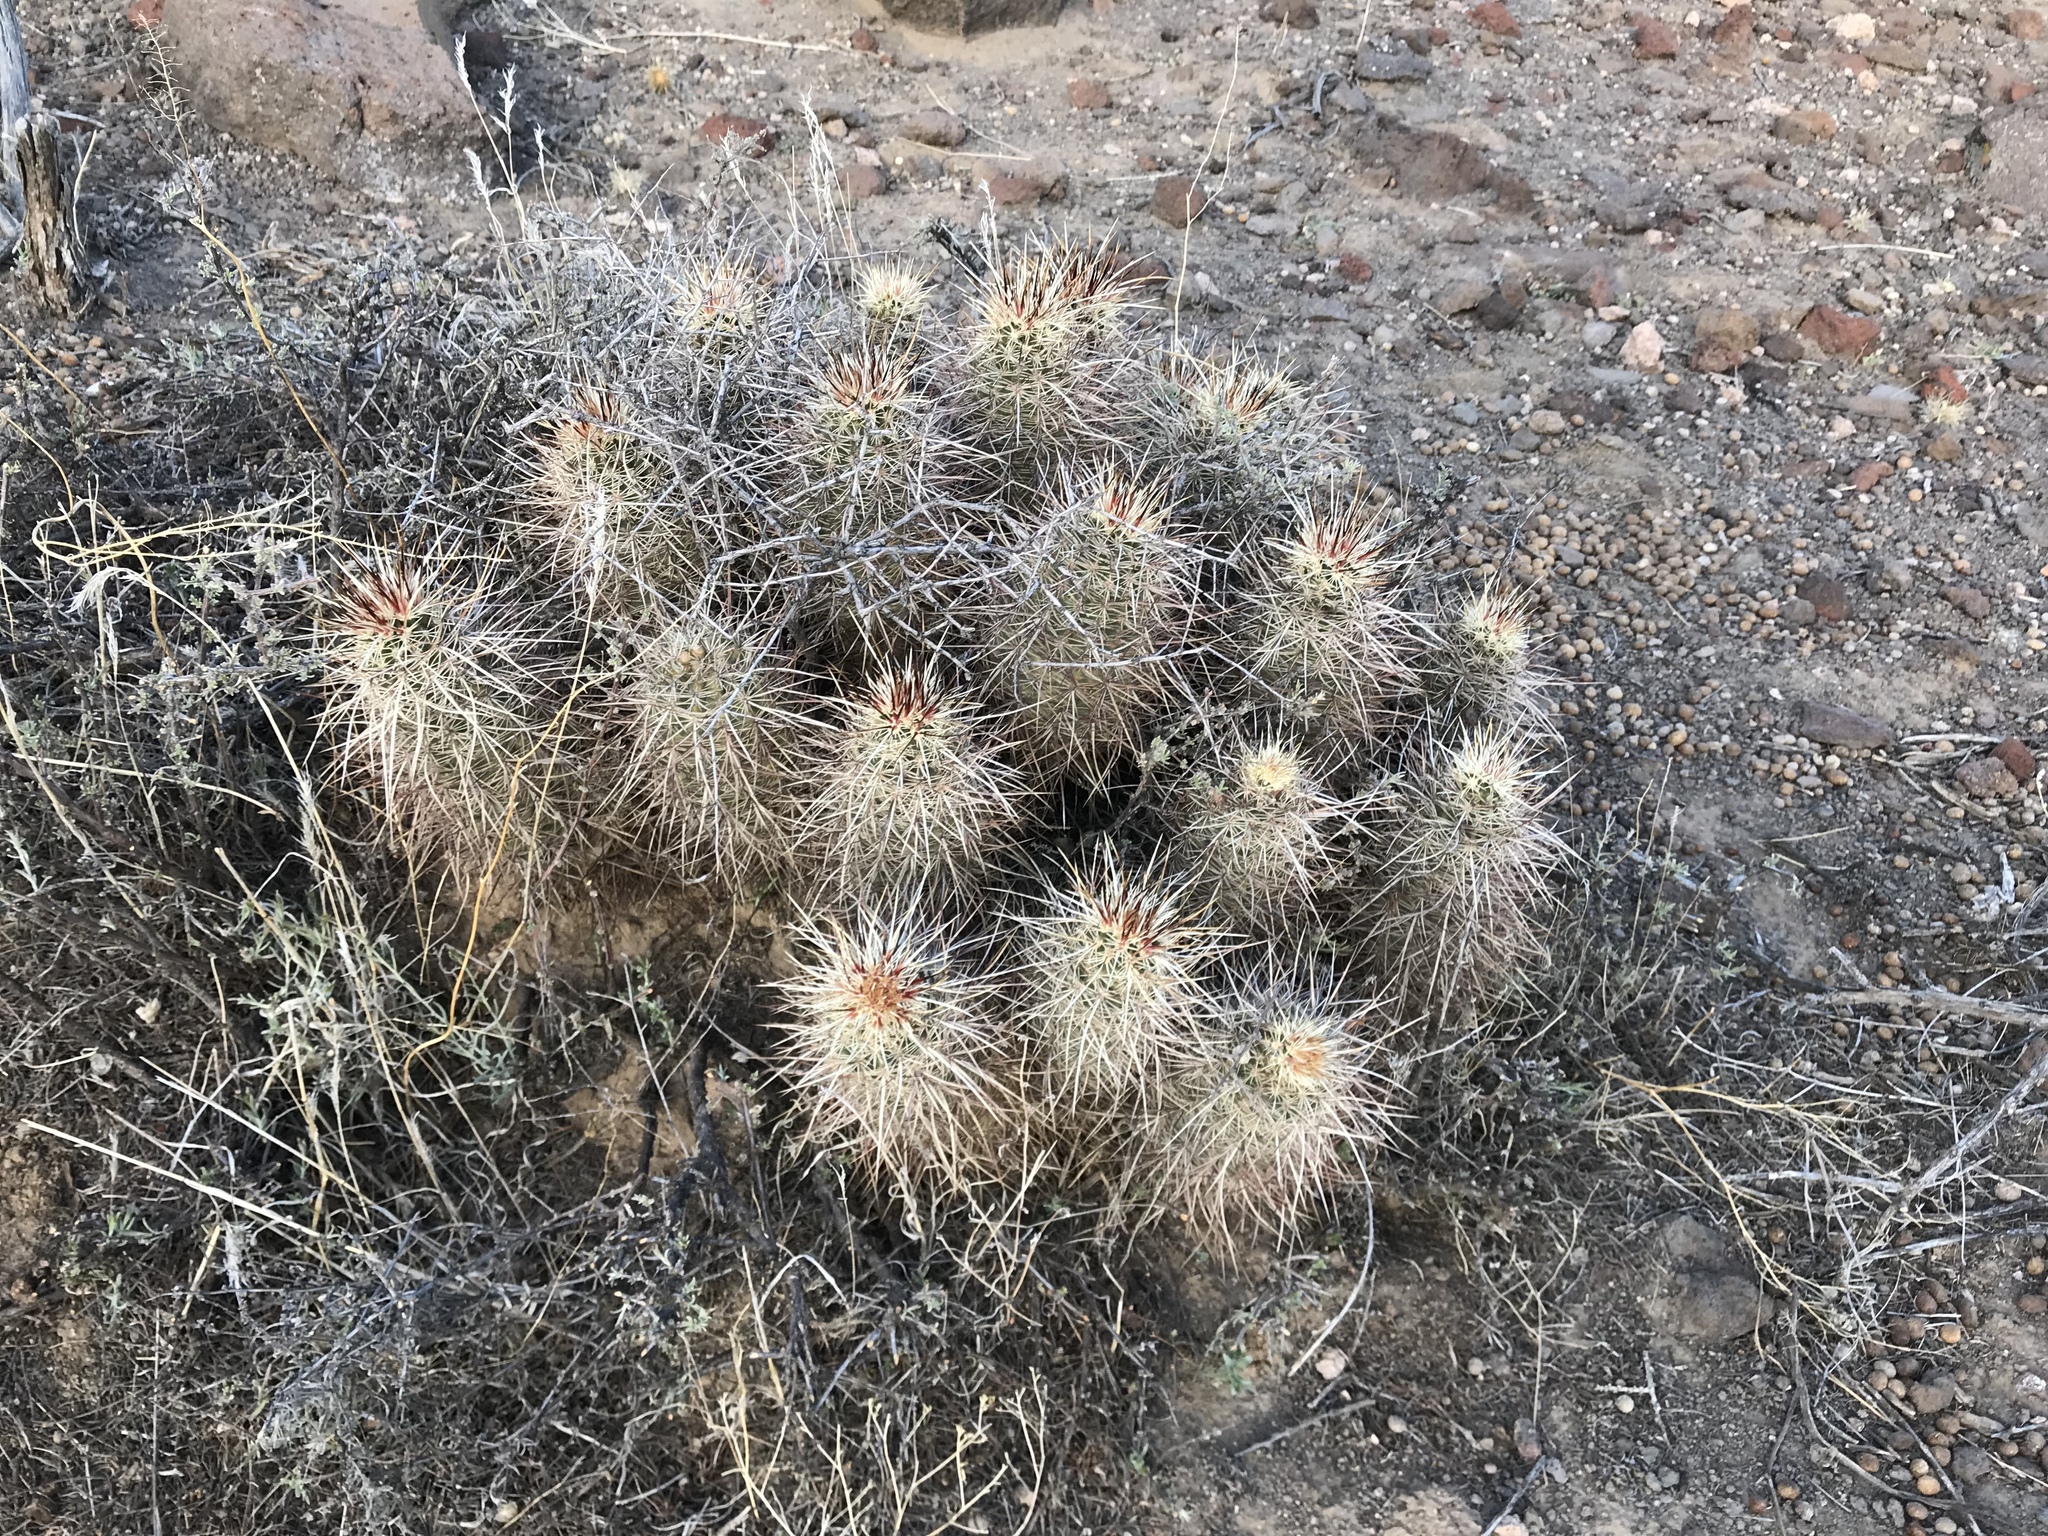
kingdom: Plantae
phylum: Tracheophyta
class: Magnoliopsida
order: Caryophyllales
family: Cactaceae
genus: Echinocereus
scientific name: Echinocereus engelmannii
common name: Engelmann's hedgehog cactus
